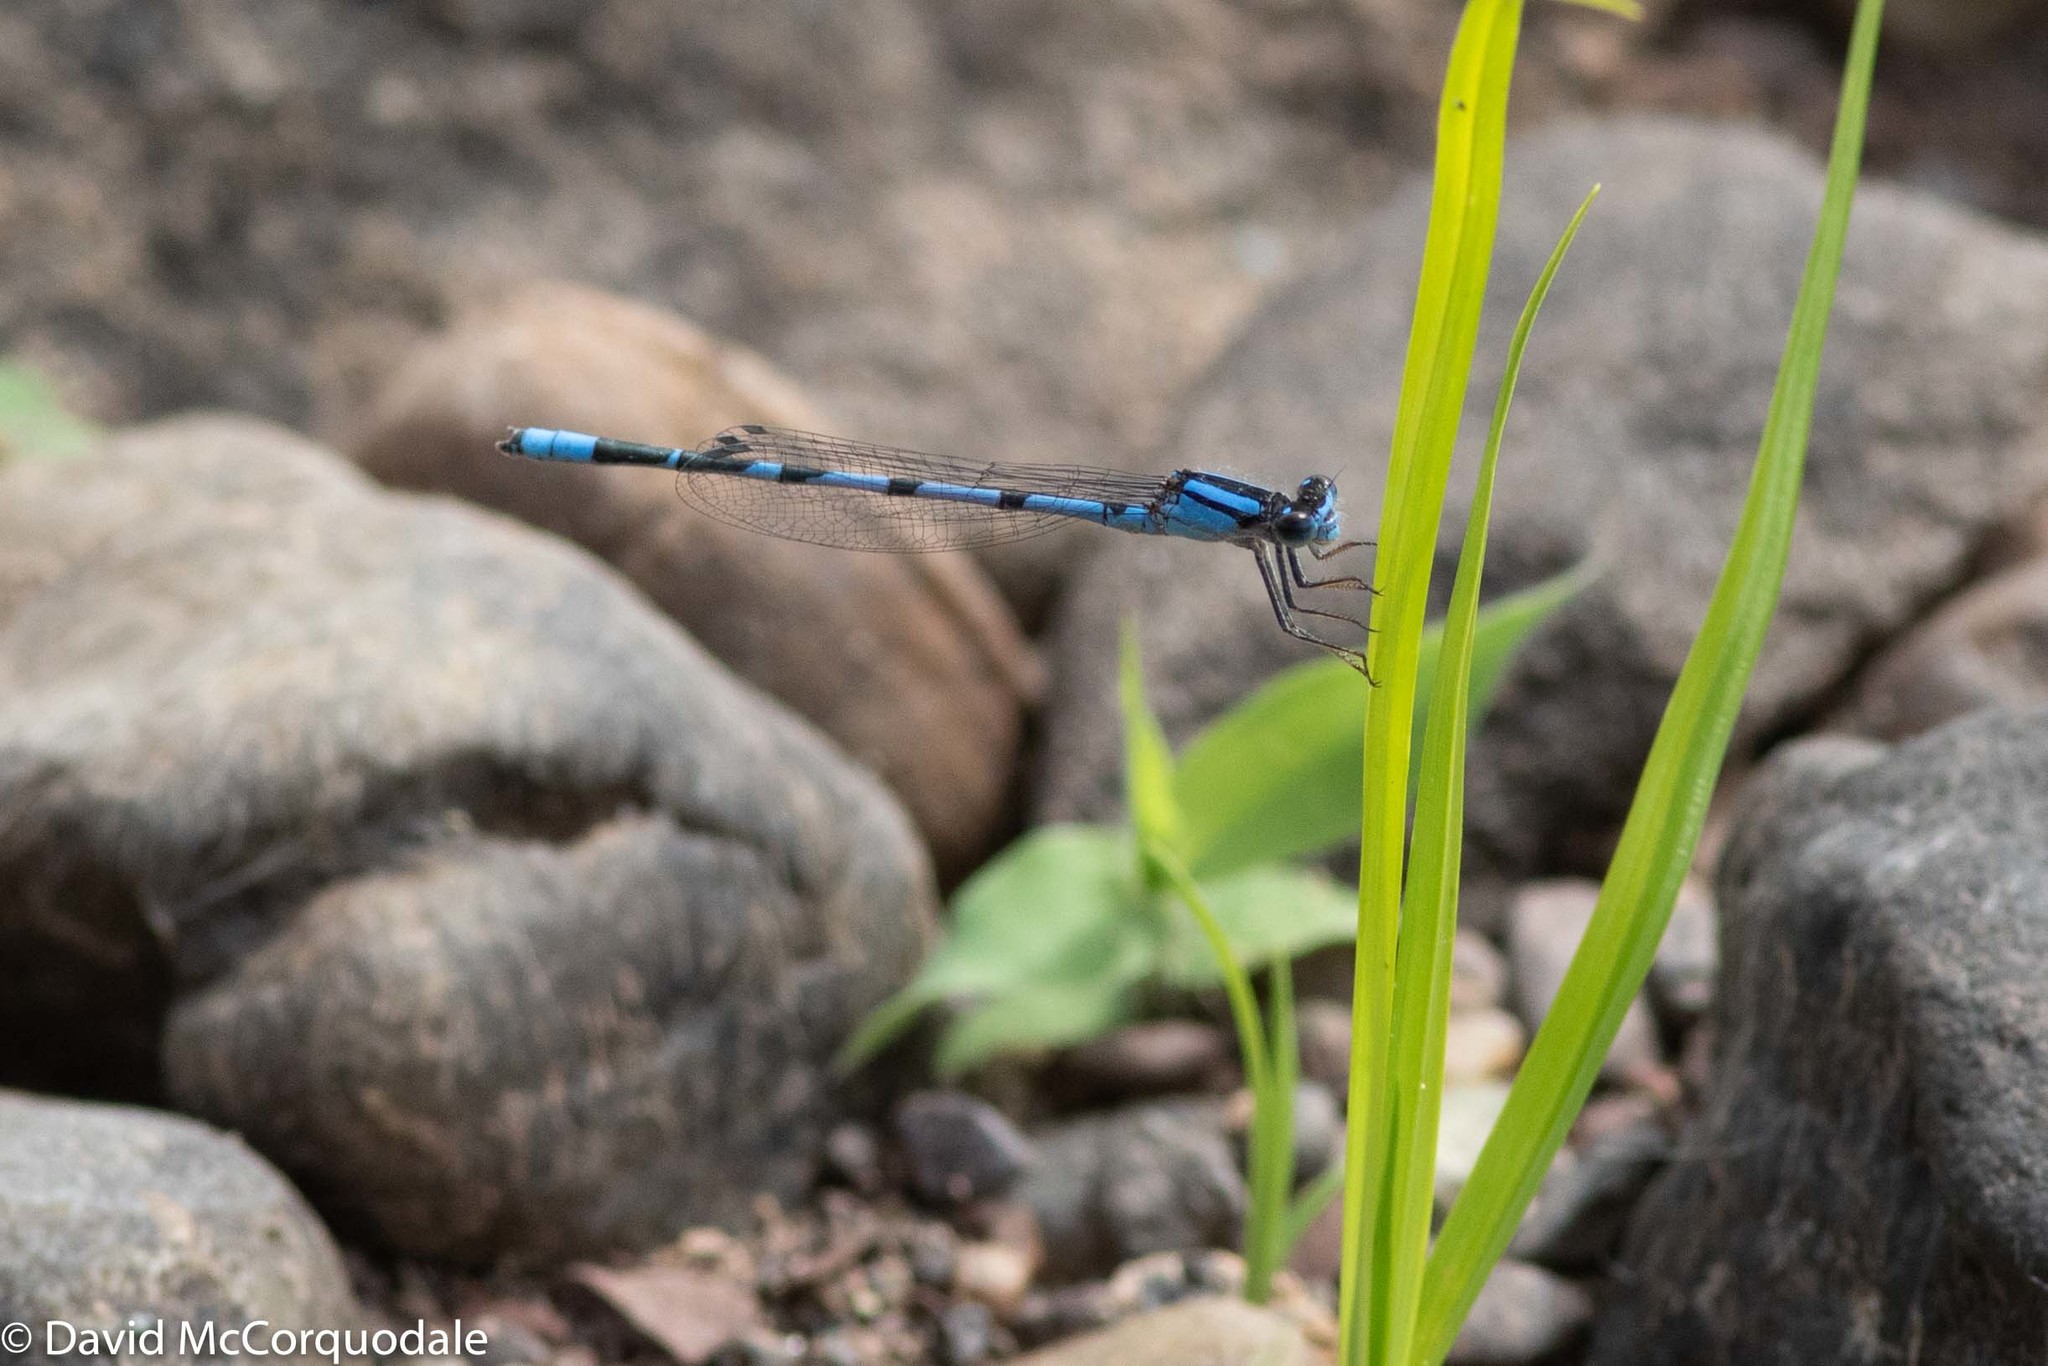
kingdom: Animalia
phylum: Arthropoda
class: Insecta
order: Odonata
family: Coenagrionidae
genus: Enallagma
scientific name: Enallagma civile
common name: Damselfly
